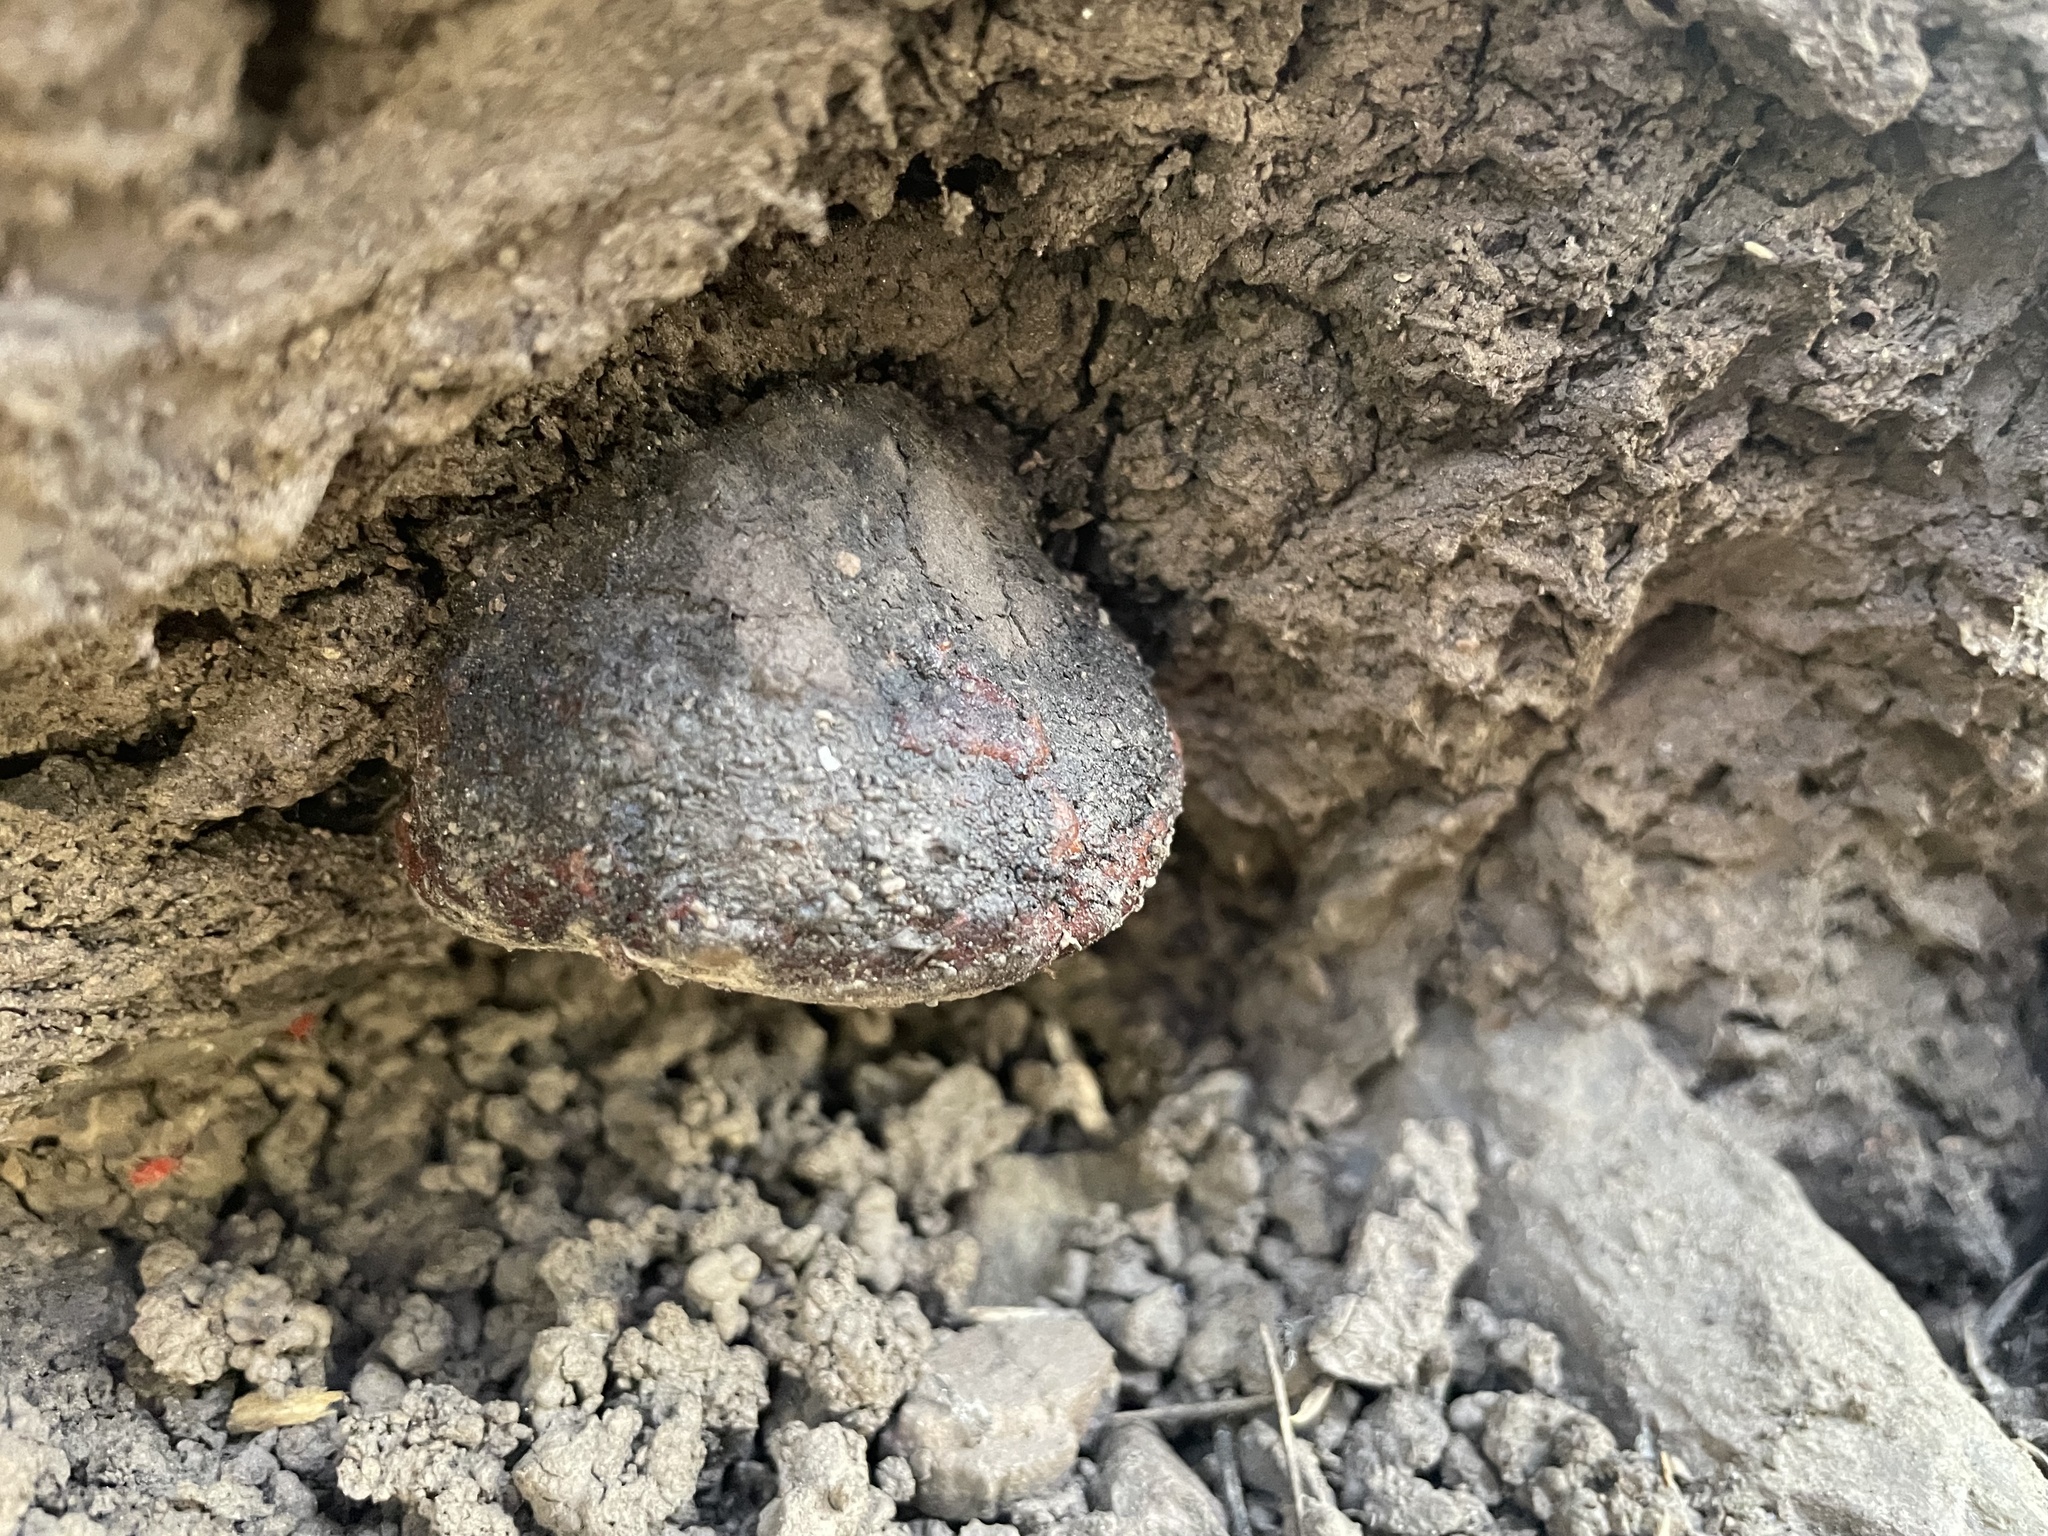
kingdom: Fungi
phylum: Basidiomycota
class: Agaricomycetes
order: Polyporales
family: Fomitopsidaceae
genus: Fomitopsis
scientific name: Fomitopsis schrenkii
